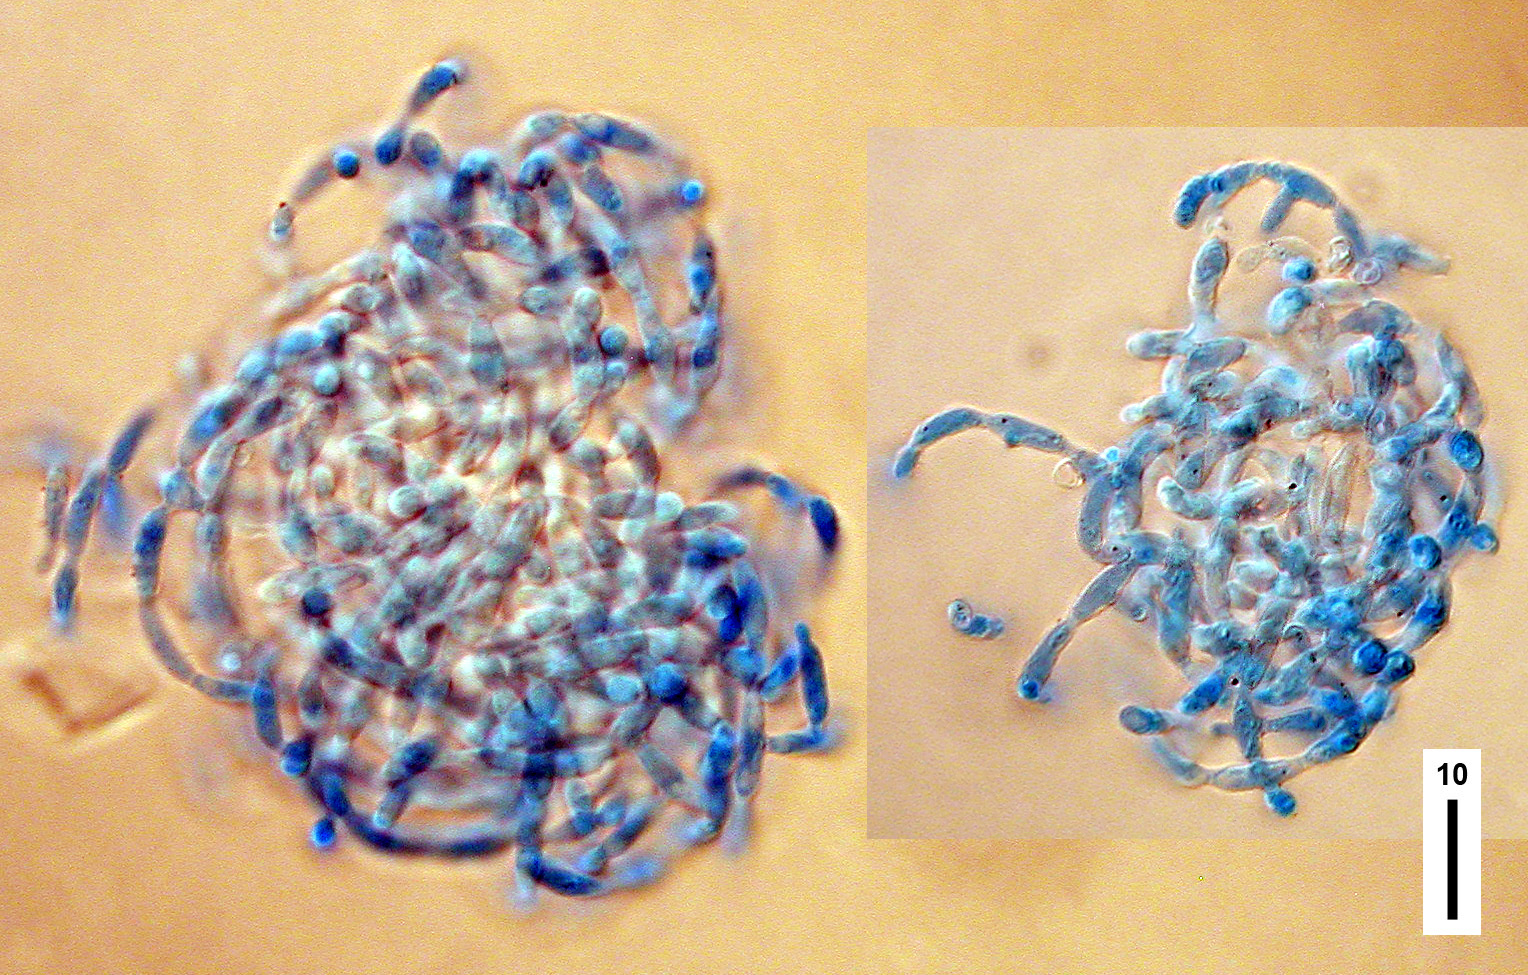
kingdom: Fungi
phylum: Ascomycota
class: Leotiomycetes
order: Helotiales
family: Tricladiaceae
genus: Spirosphaera
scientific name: Spirosphaera carici-graminis
